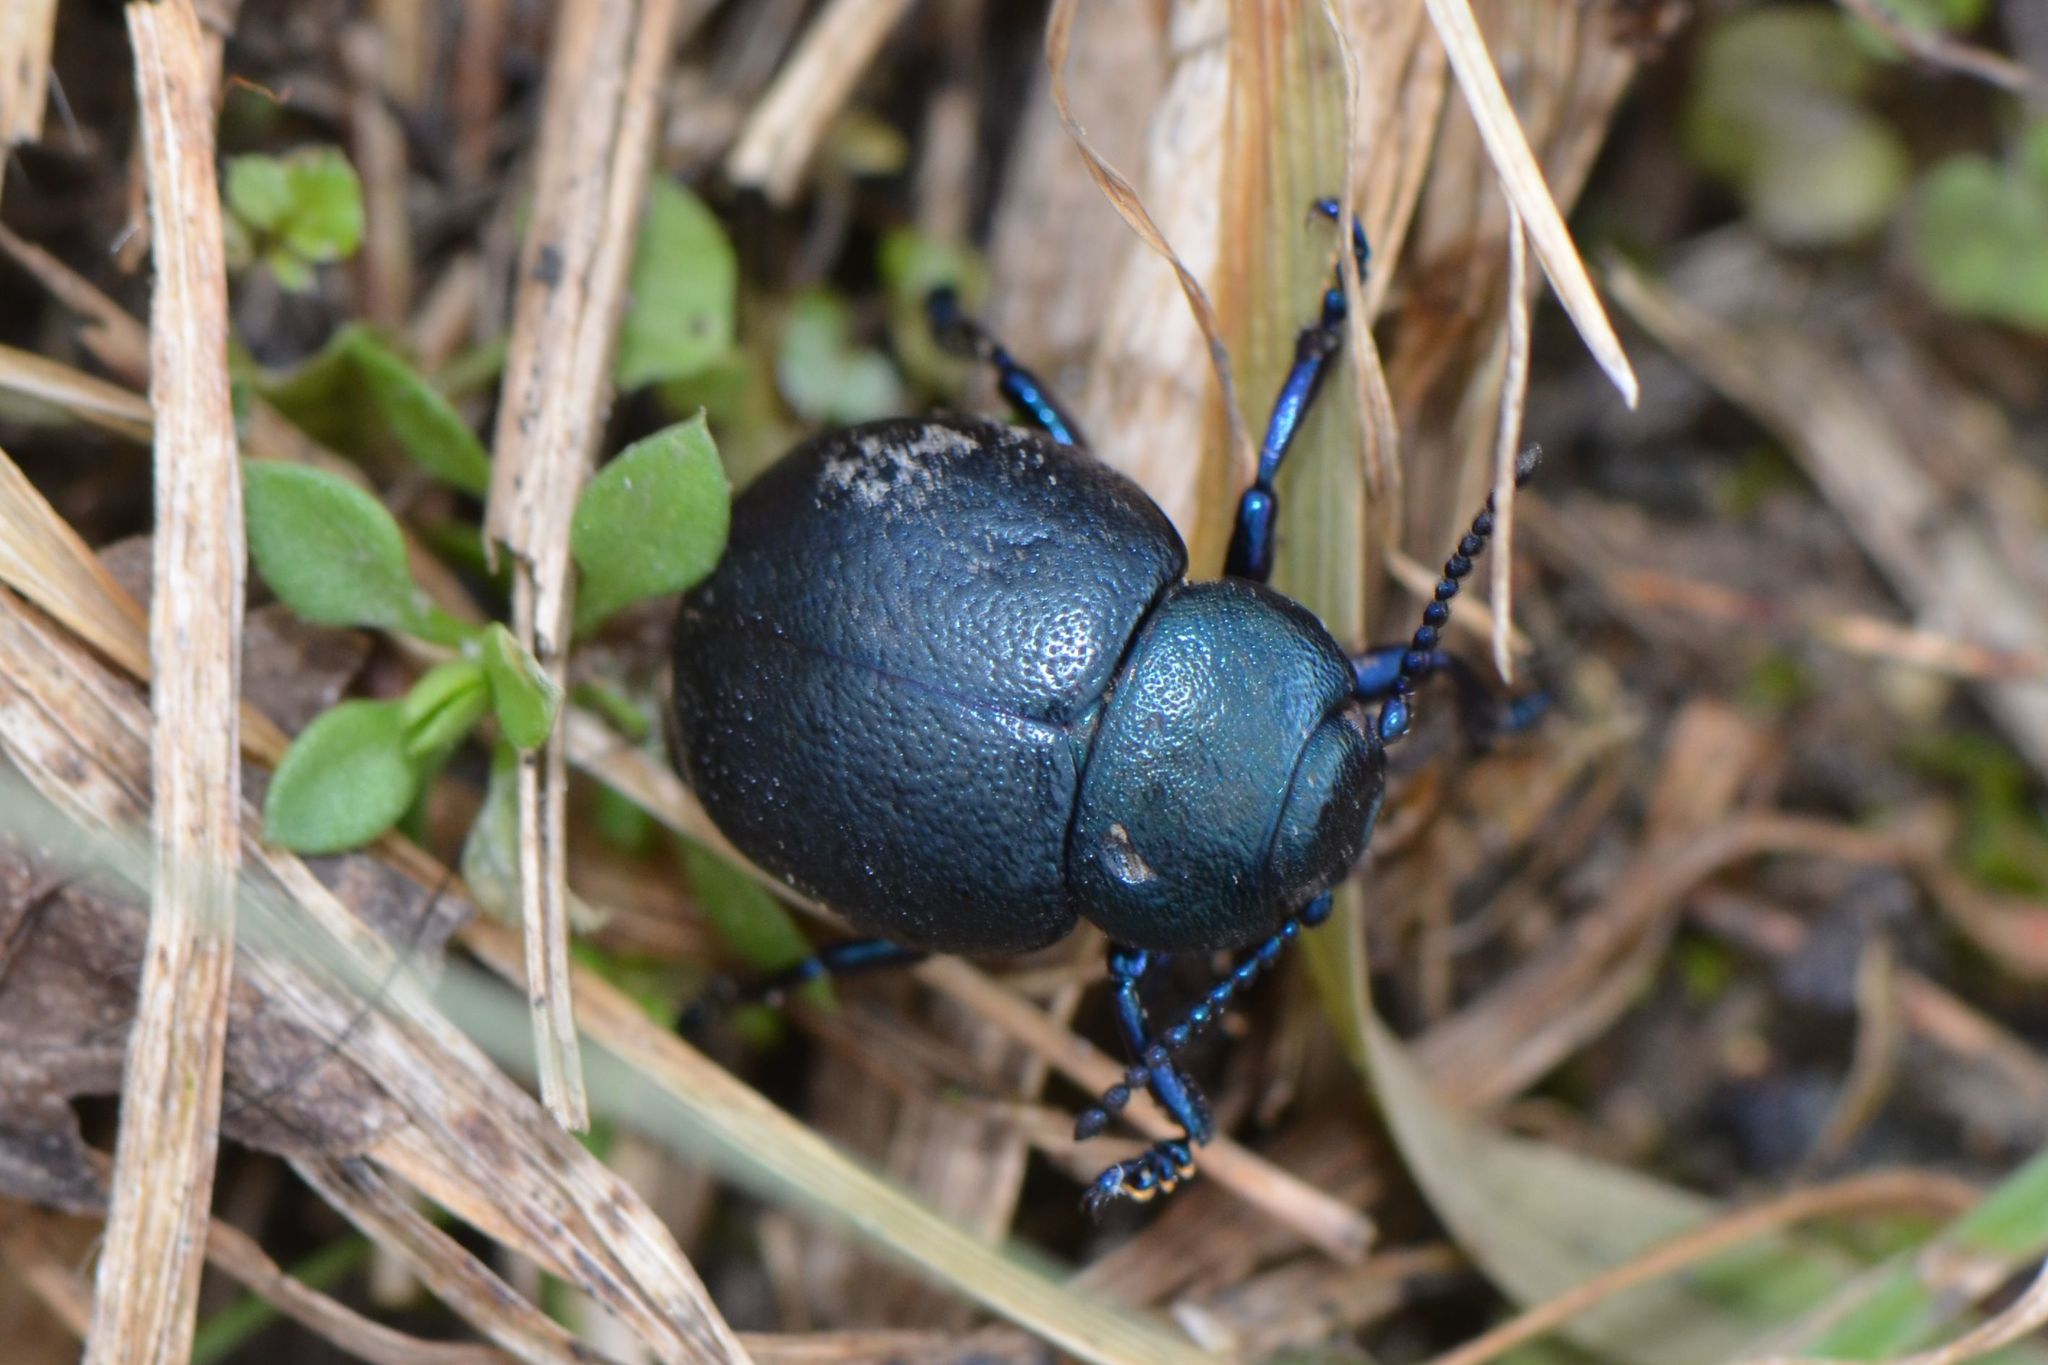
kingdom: Animalia
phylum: Arthropoda
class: Insecta
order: Coleoptera
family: Chrysomelidae
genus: Timarcha
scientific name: Timarcha goettingensis
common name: Small bloody-nosed beetle
